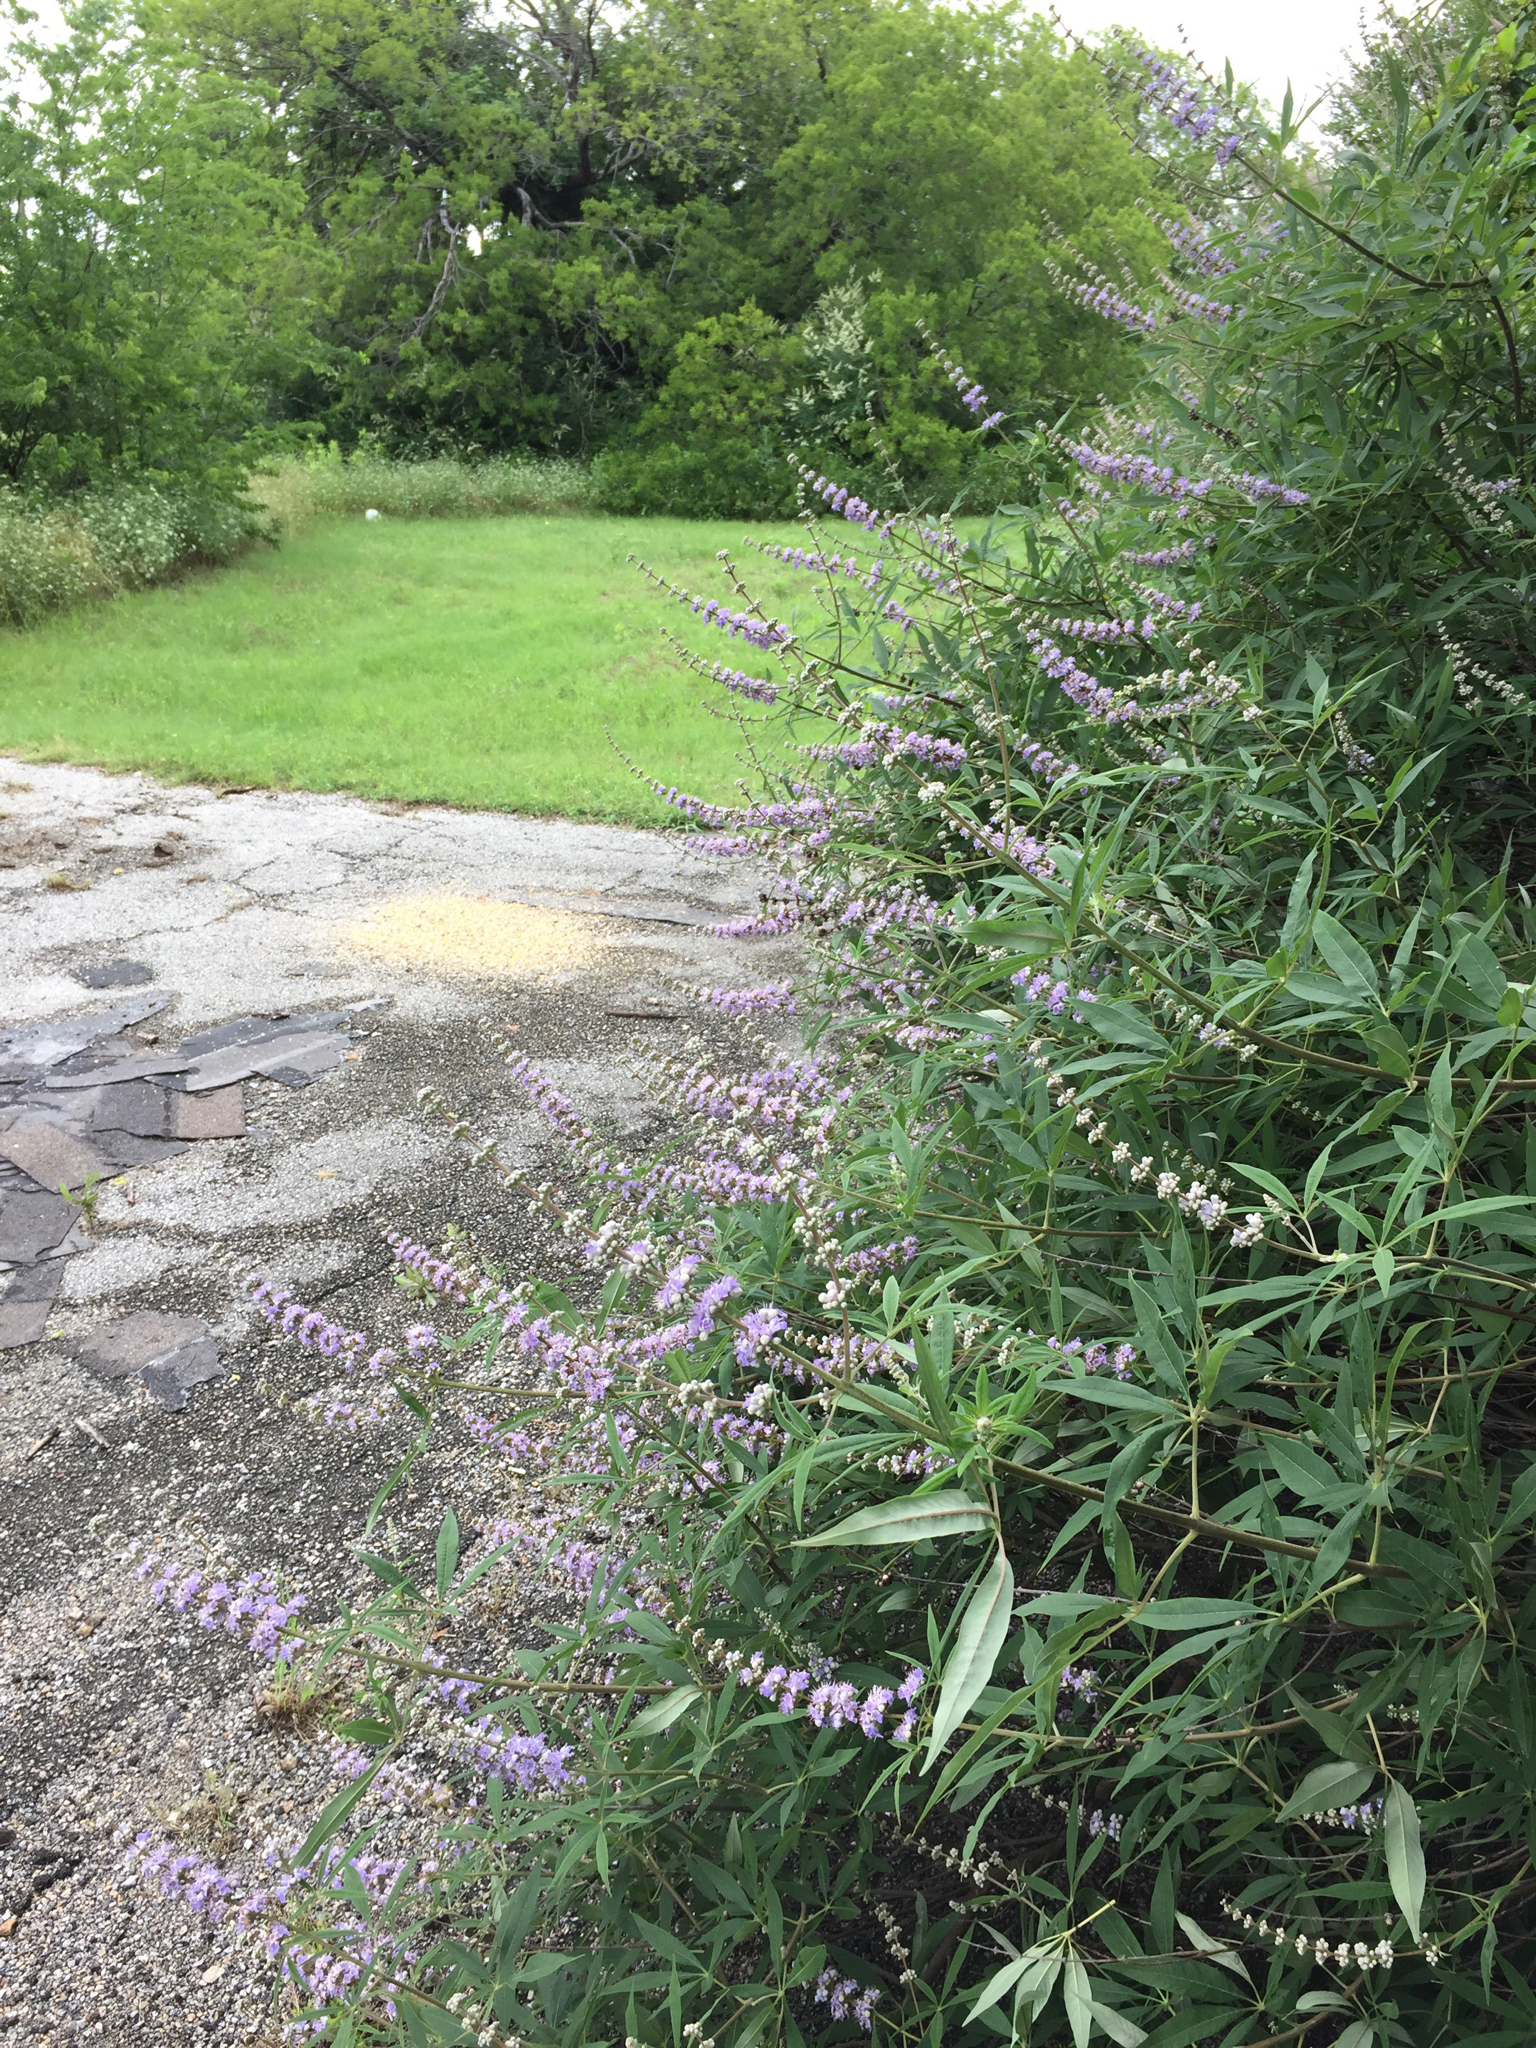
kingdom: Plantae
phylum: Tracheophyta
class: Magnoliopsida
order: Lamiales
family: Lamiaceae
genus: Vitex
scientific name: Vitex agnus-castus
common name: Chasteberry
